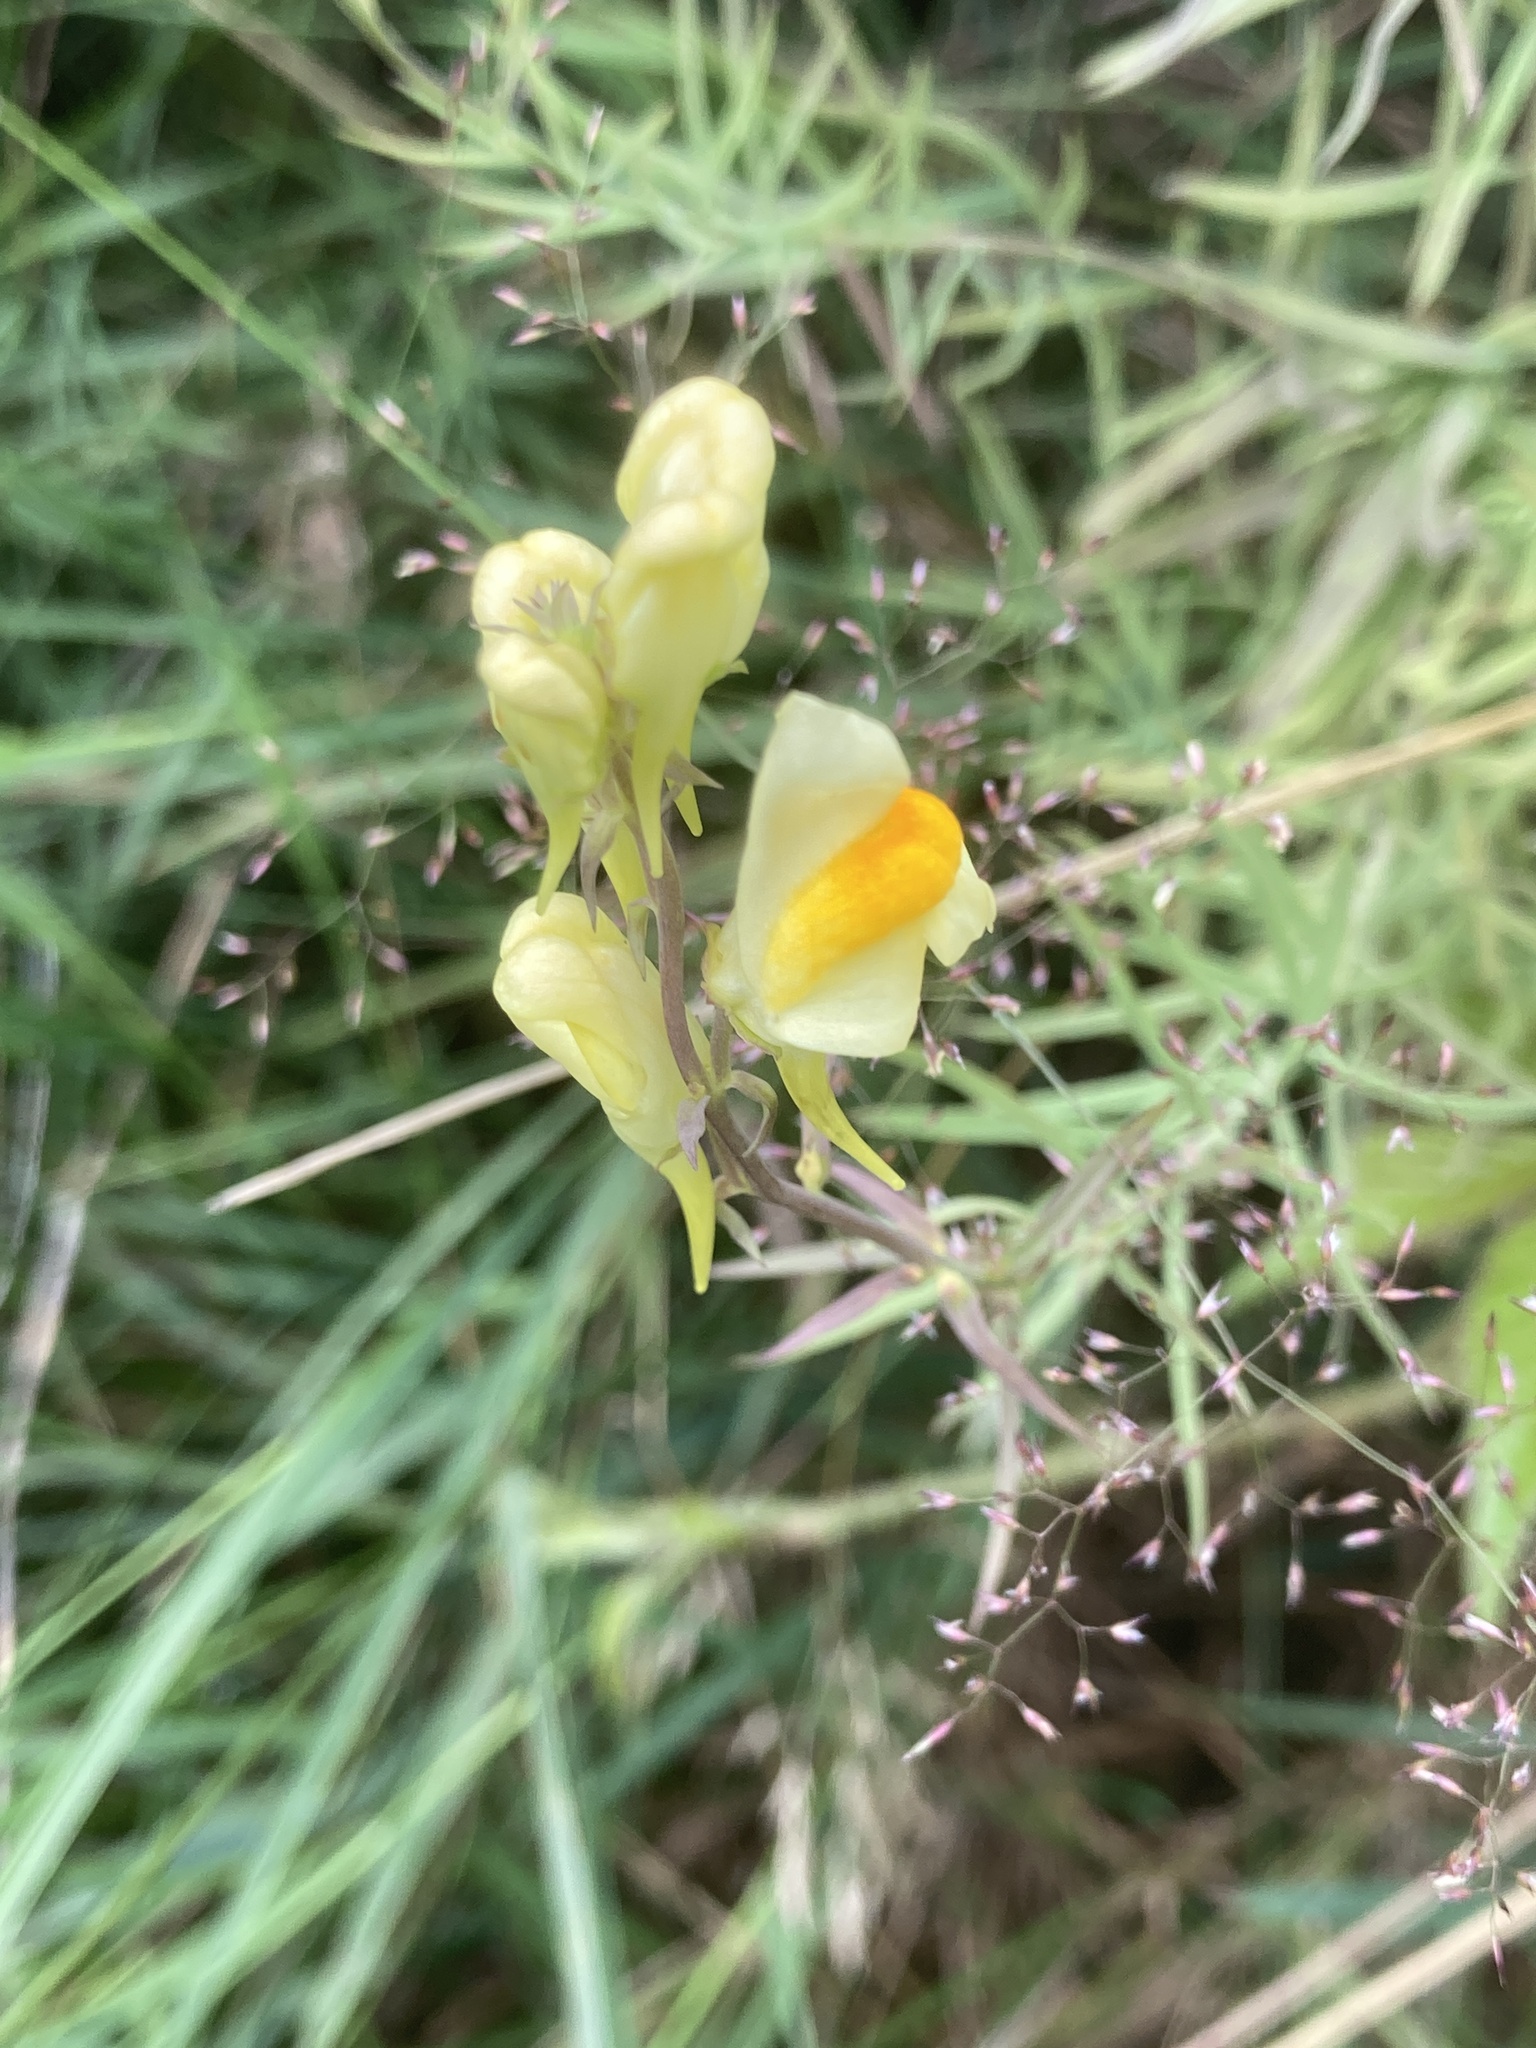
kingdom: Plantae
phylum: Tracheophyta
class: Magnoliopsida
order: Lamiales
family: Plantaginaceae
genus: Linaria
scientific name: Linaria vulgaris
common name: Butter and eggs
